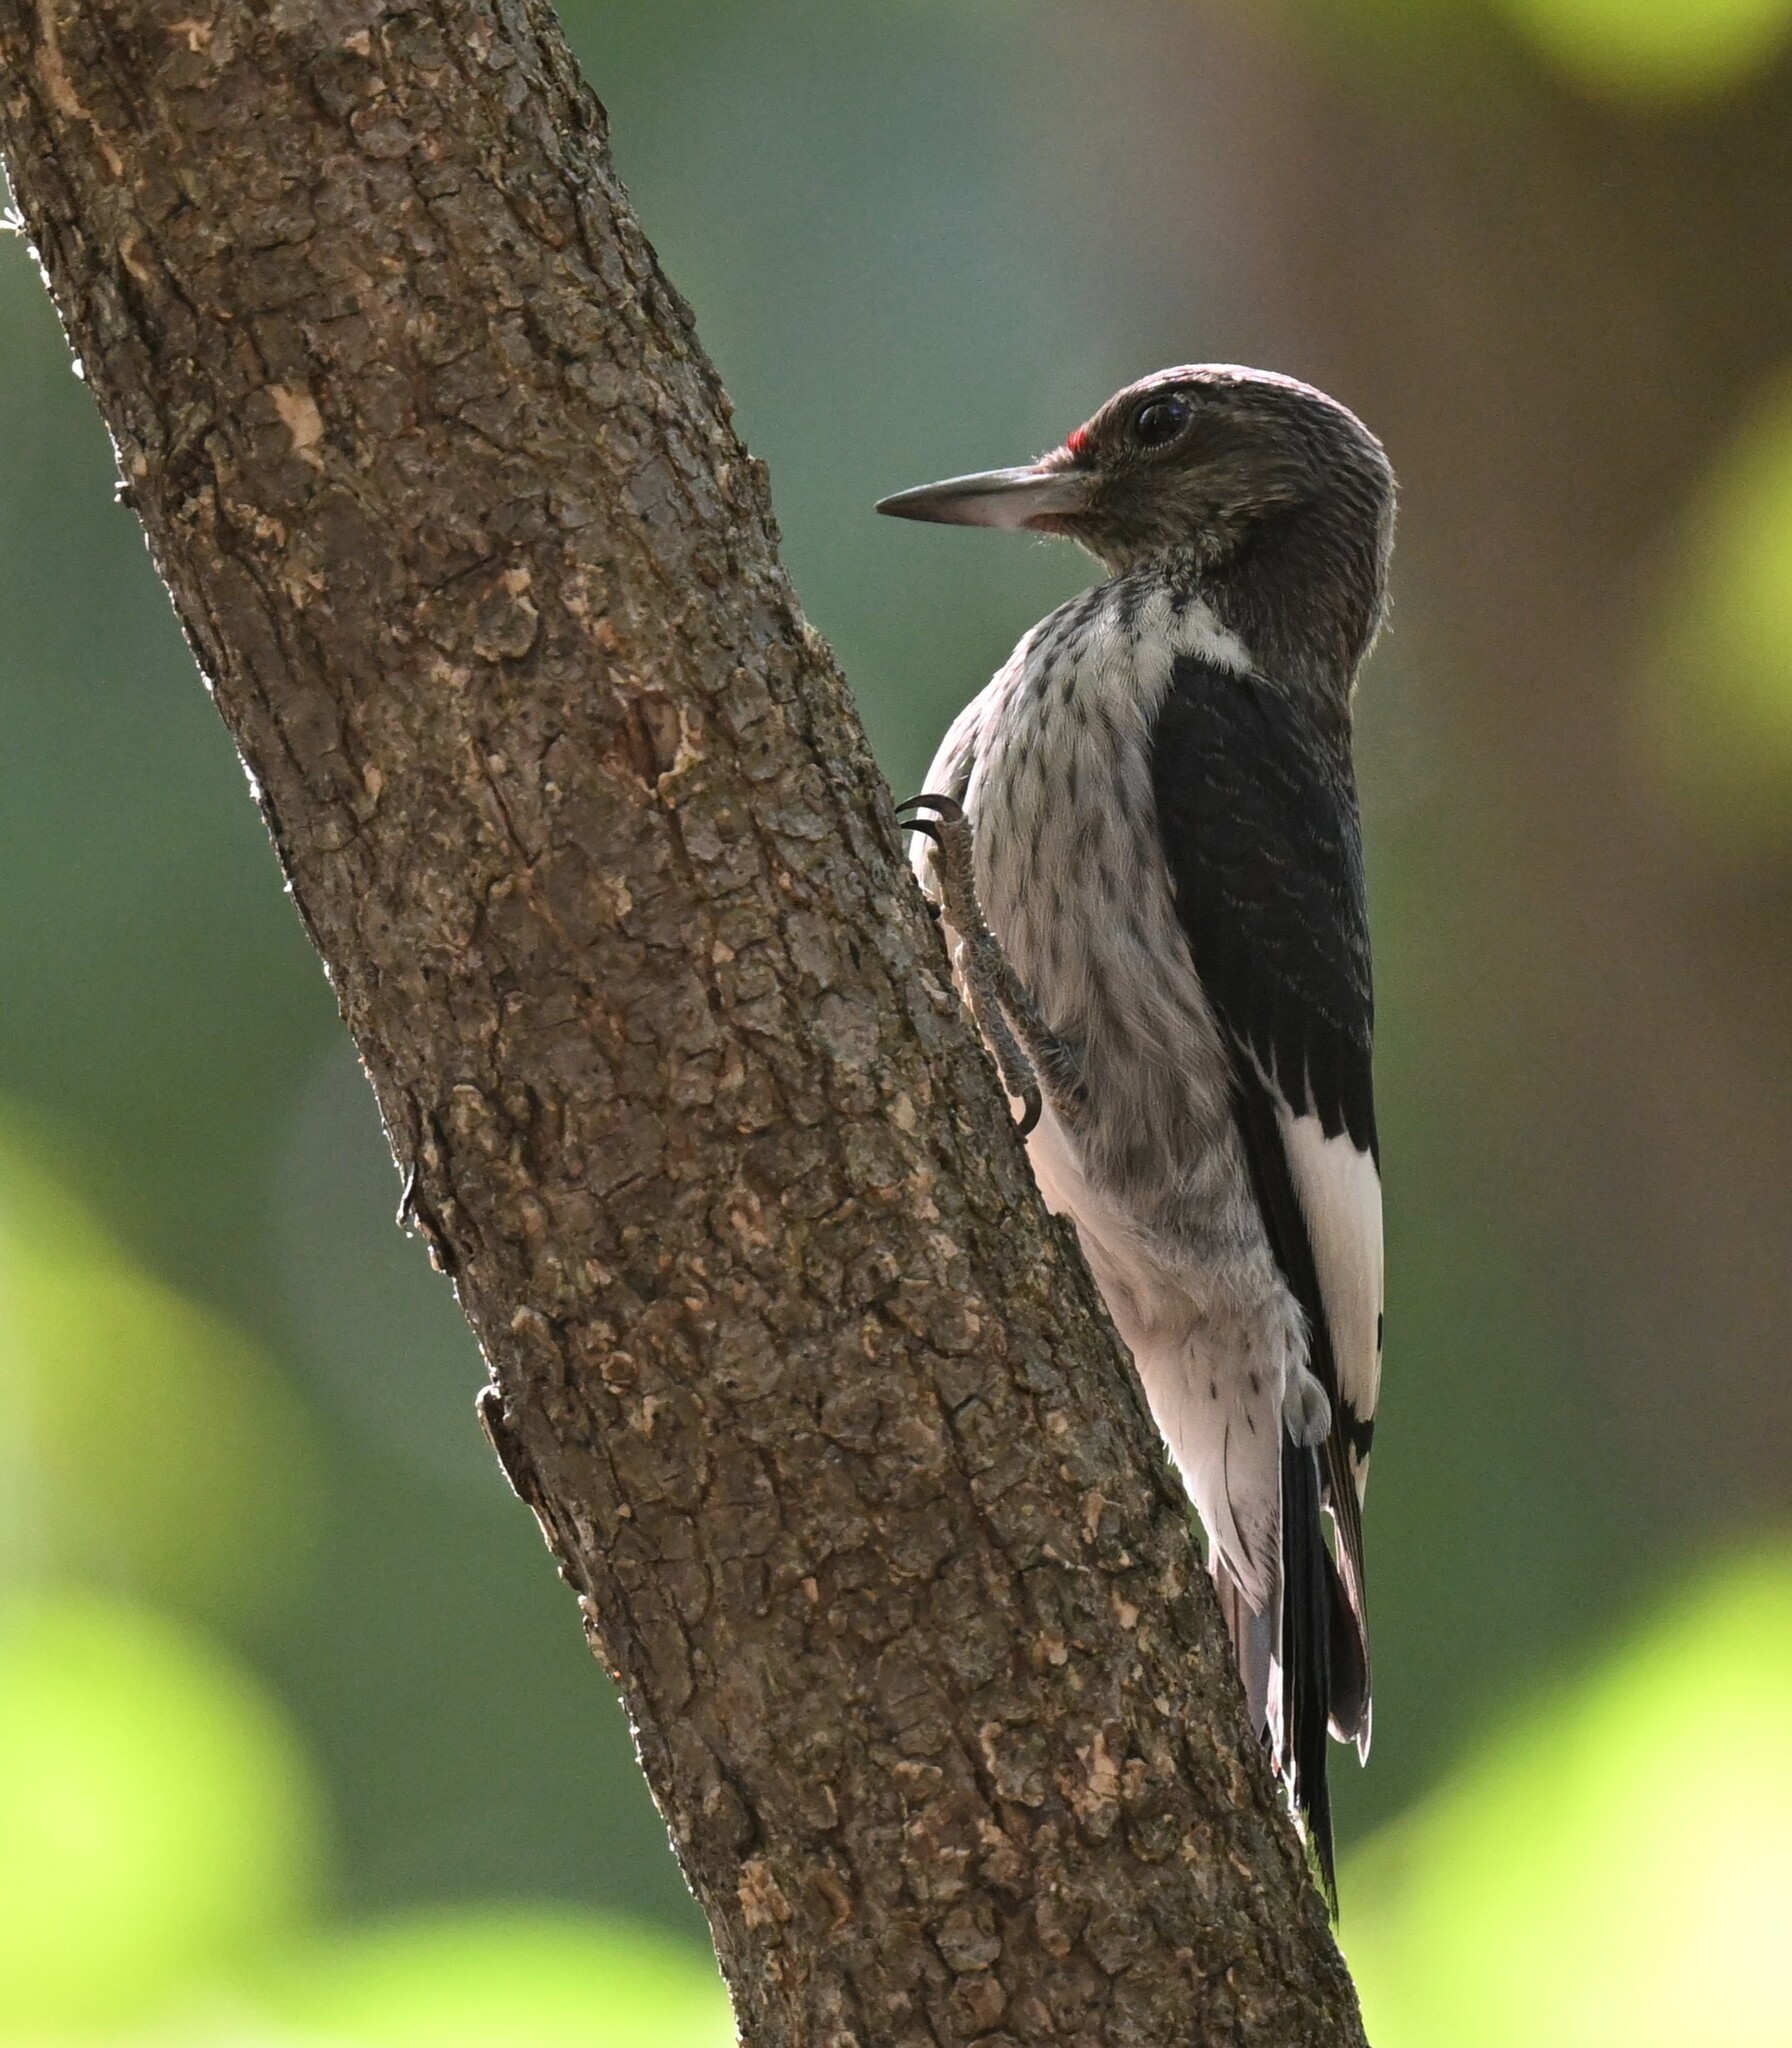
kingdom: Animalia
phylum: Chordata
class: Aves
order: Piciformes
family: Picidae
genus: Melanerpes
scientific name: Melanerpes erythrocephalus
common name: Red-headed woodpecker
